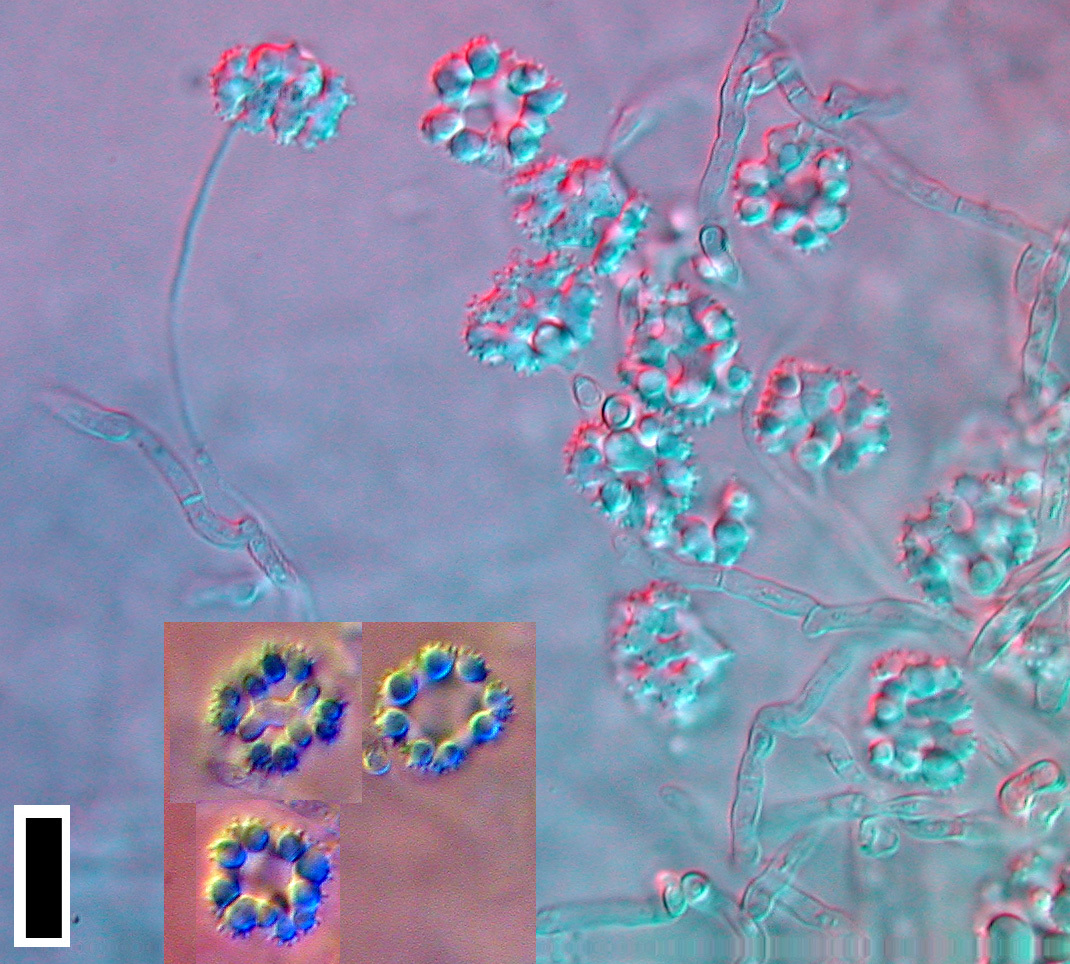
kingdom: Fungi
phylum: Ascomycota
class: Leotiomycetes
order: Helotiales
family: Hyaloscyphaceae
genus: Hyaloscypha
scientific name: Hyaloscypha spinulosa
